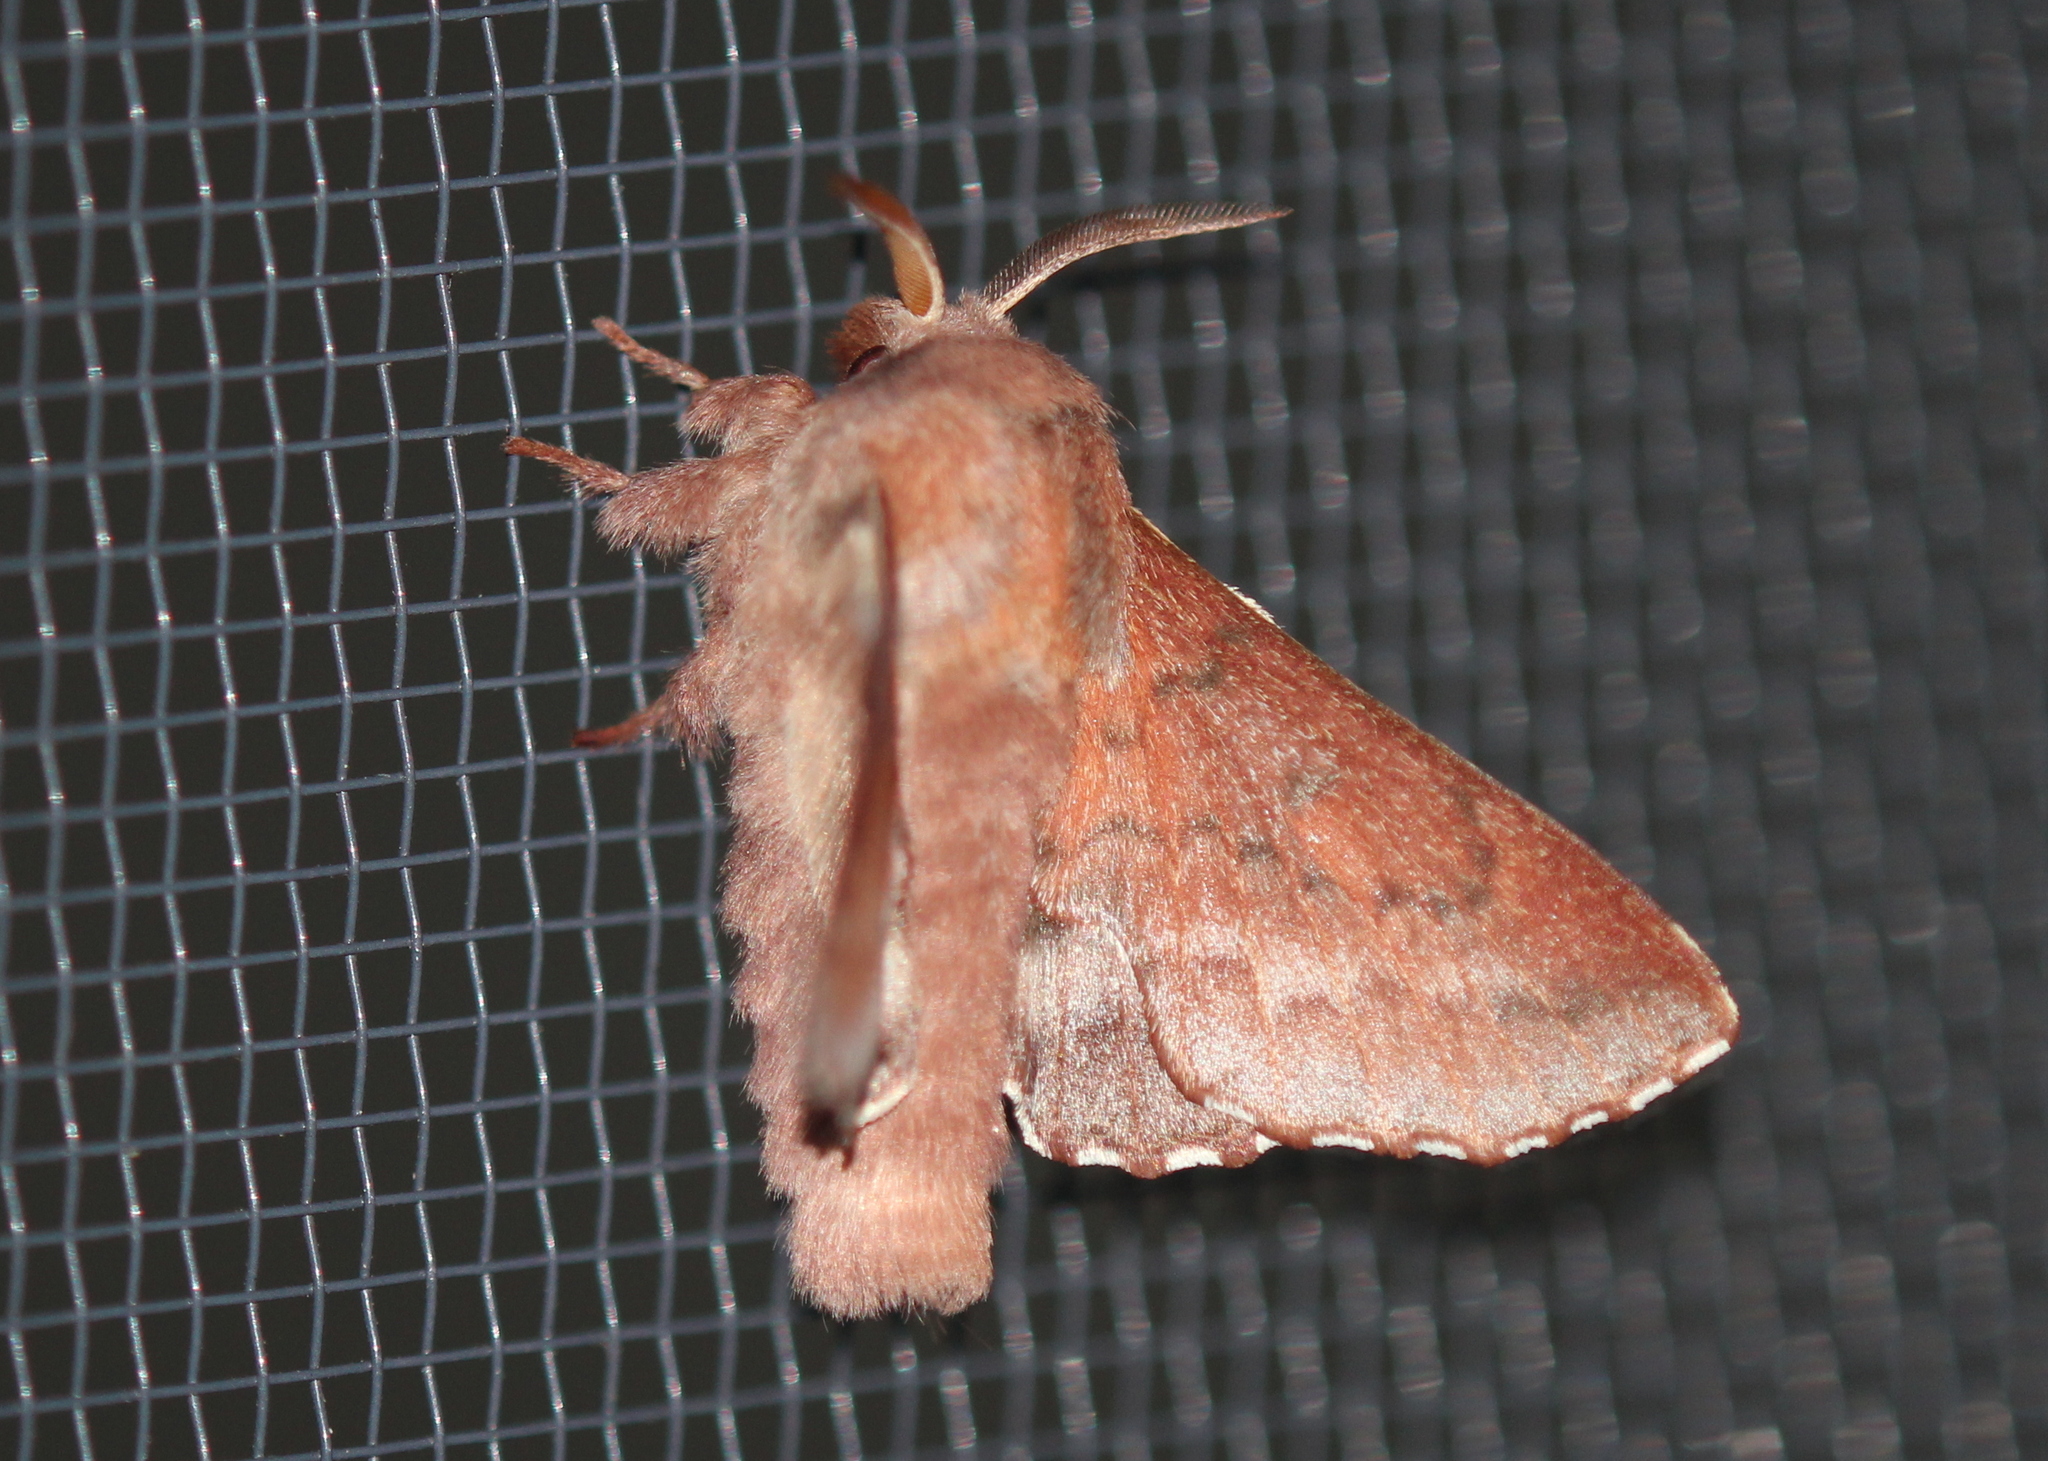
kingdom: Animalia
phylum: Arthropoda
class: Insecta
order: Lepidoptera
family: Lasiocampidae
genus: Phyllodesma
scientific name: Phyllodesma americana
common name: American lappet moth
